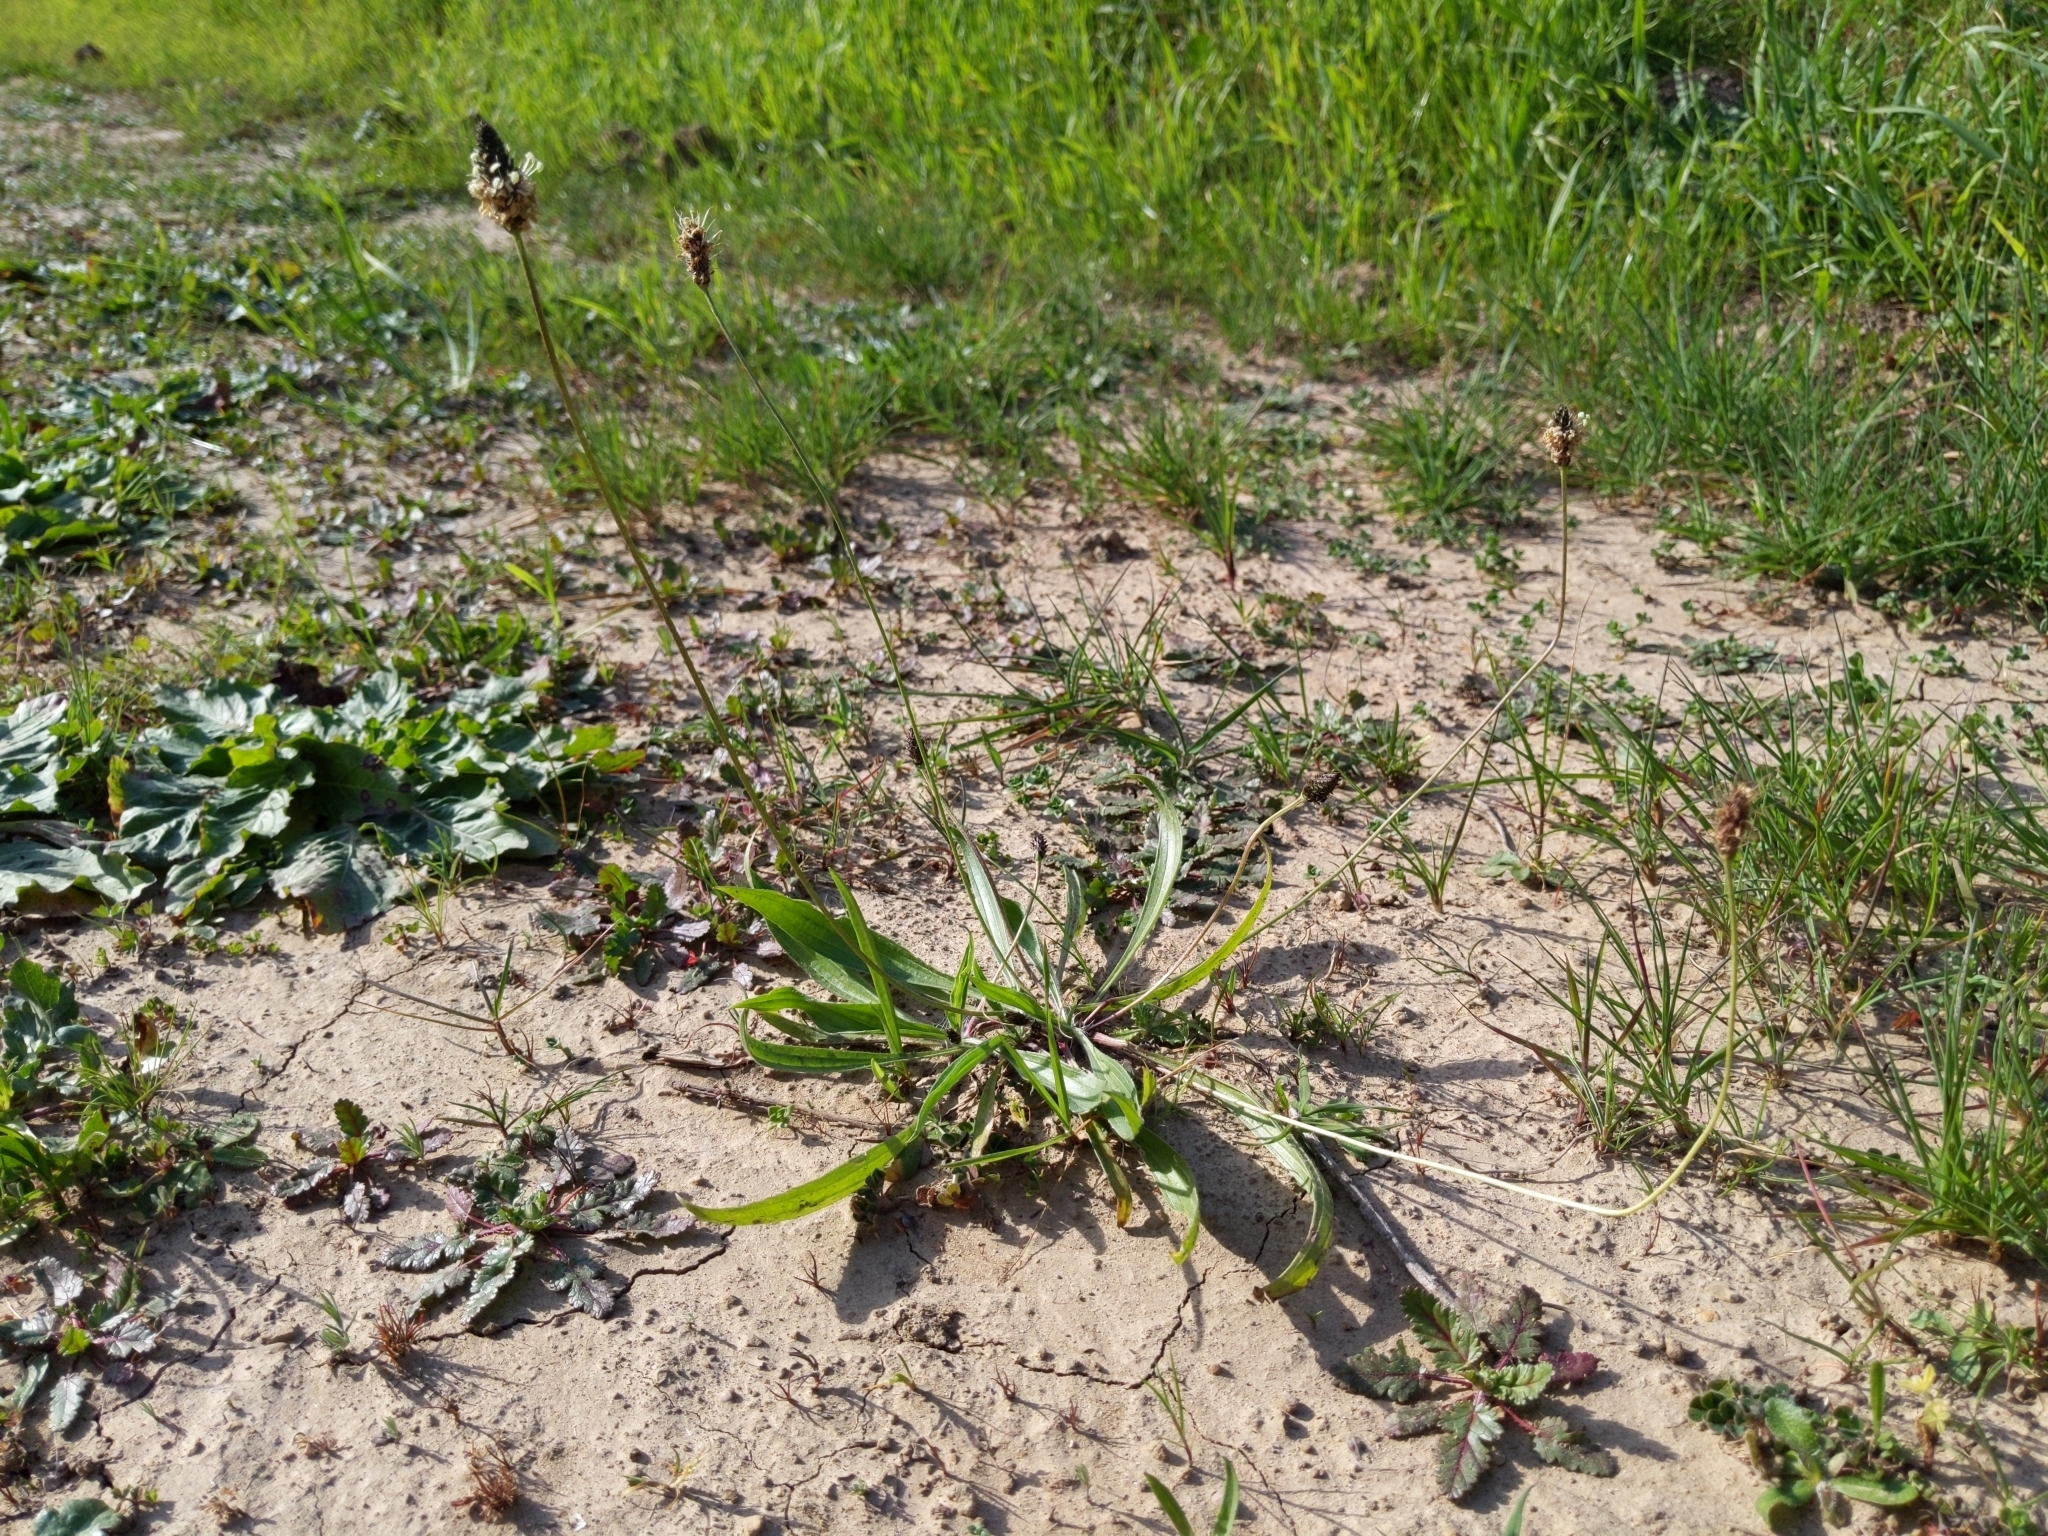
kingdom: Plantae
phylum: Tracheophyta
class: Magnoliopsida
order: Lamiales
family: Plantaginaceae
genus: Plantago
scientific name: Plantago lanceolata
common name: Ribwort plantain
